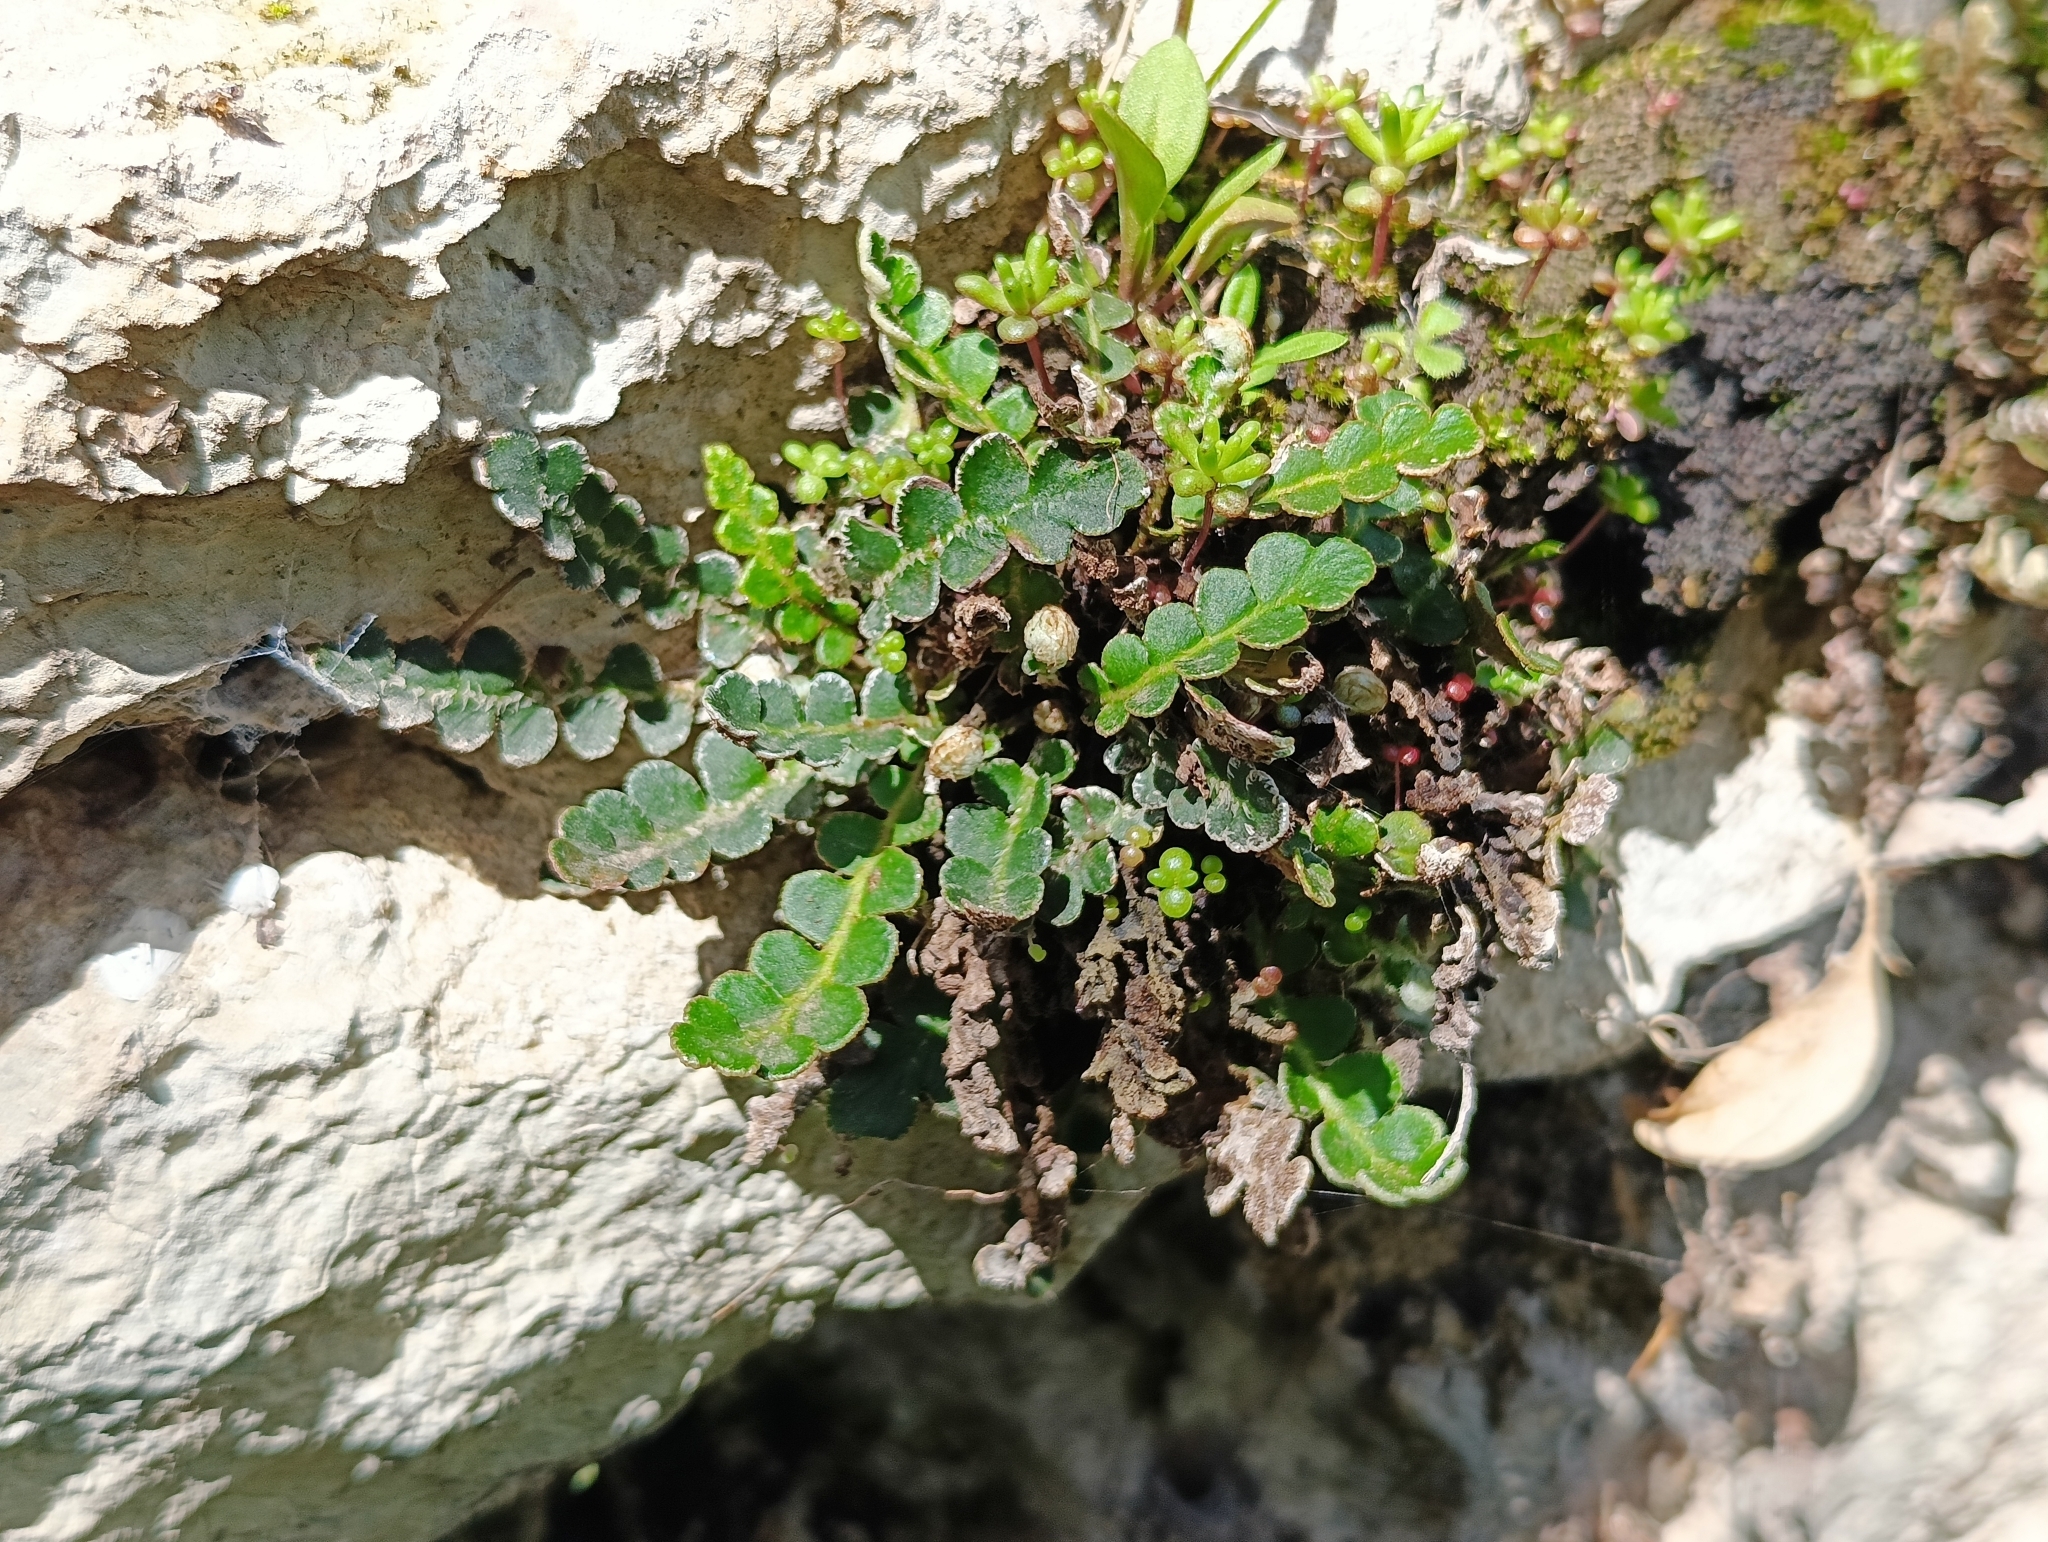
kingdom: Plantae
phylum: Tracheophyta
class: Polypodiopsida
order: Polypodiales
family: Aspleniaceae
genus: Asplenium
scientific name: Asplenium ceterach
